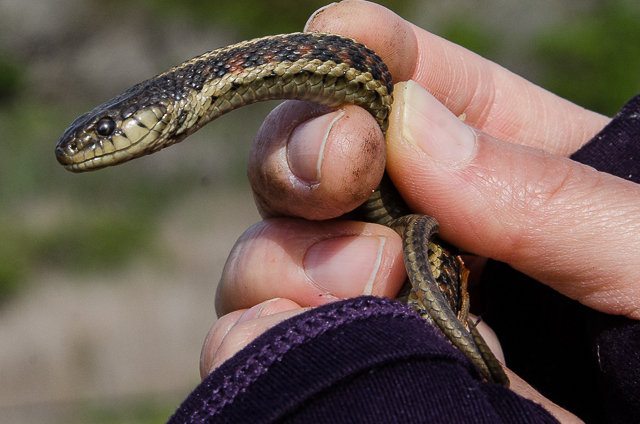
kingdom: Animalia
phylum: Chordata
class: Squamata
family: Colubridae
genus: Thamnophis
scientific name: Thamnophis elegans
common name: Western terrestrial garter snake
